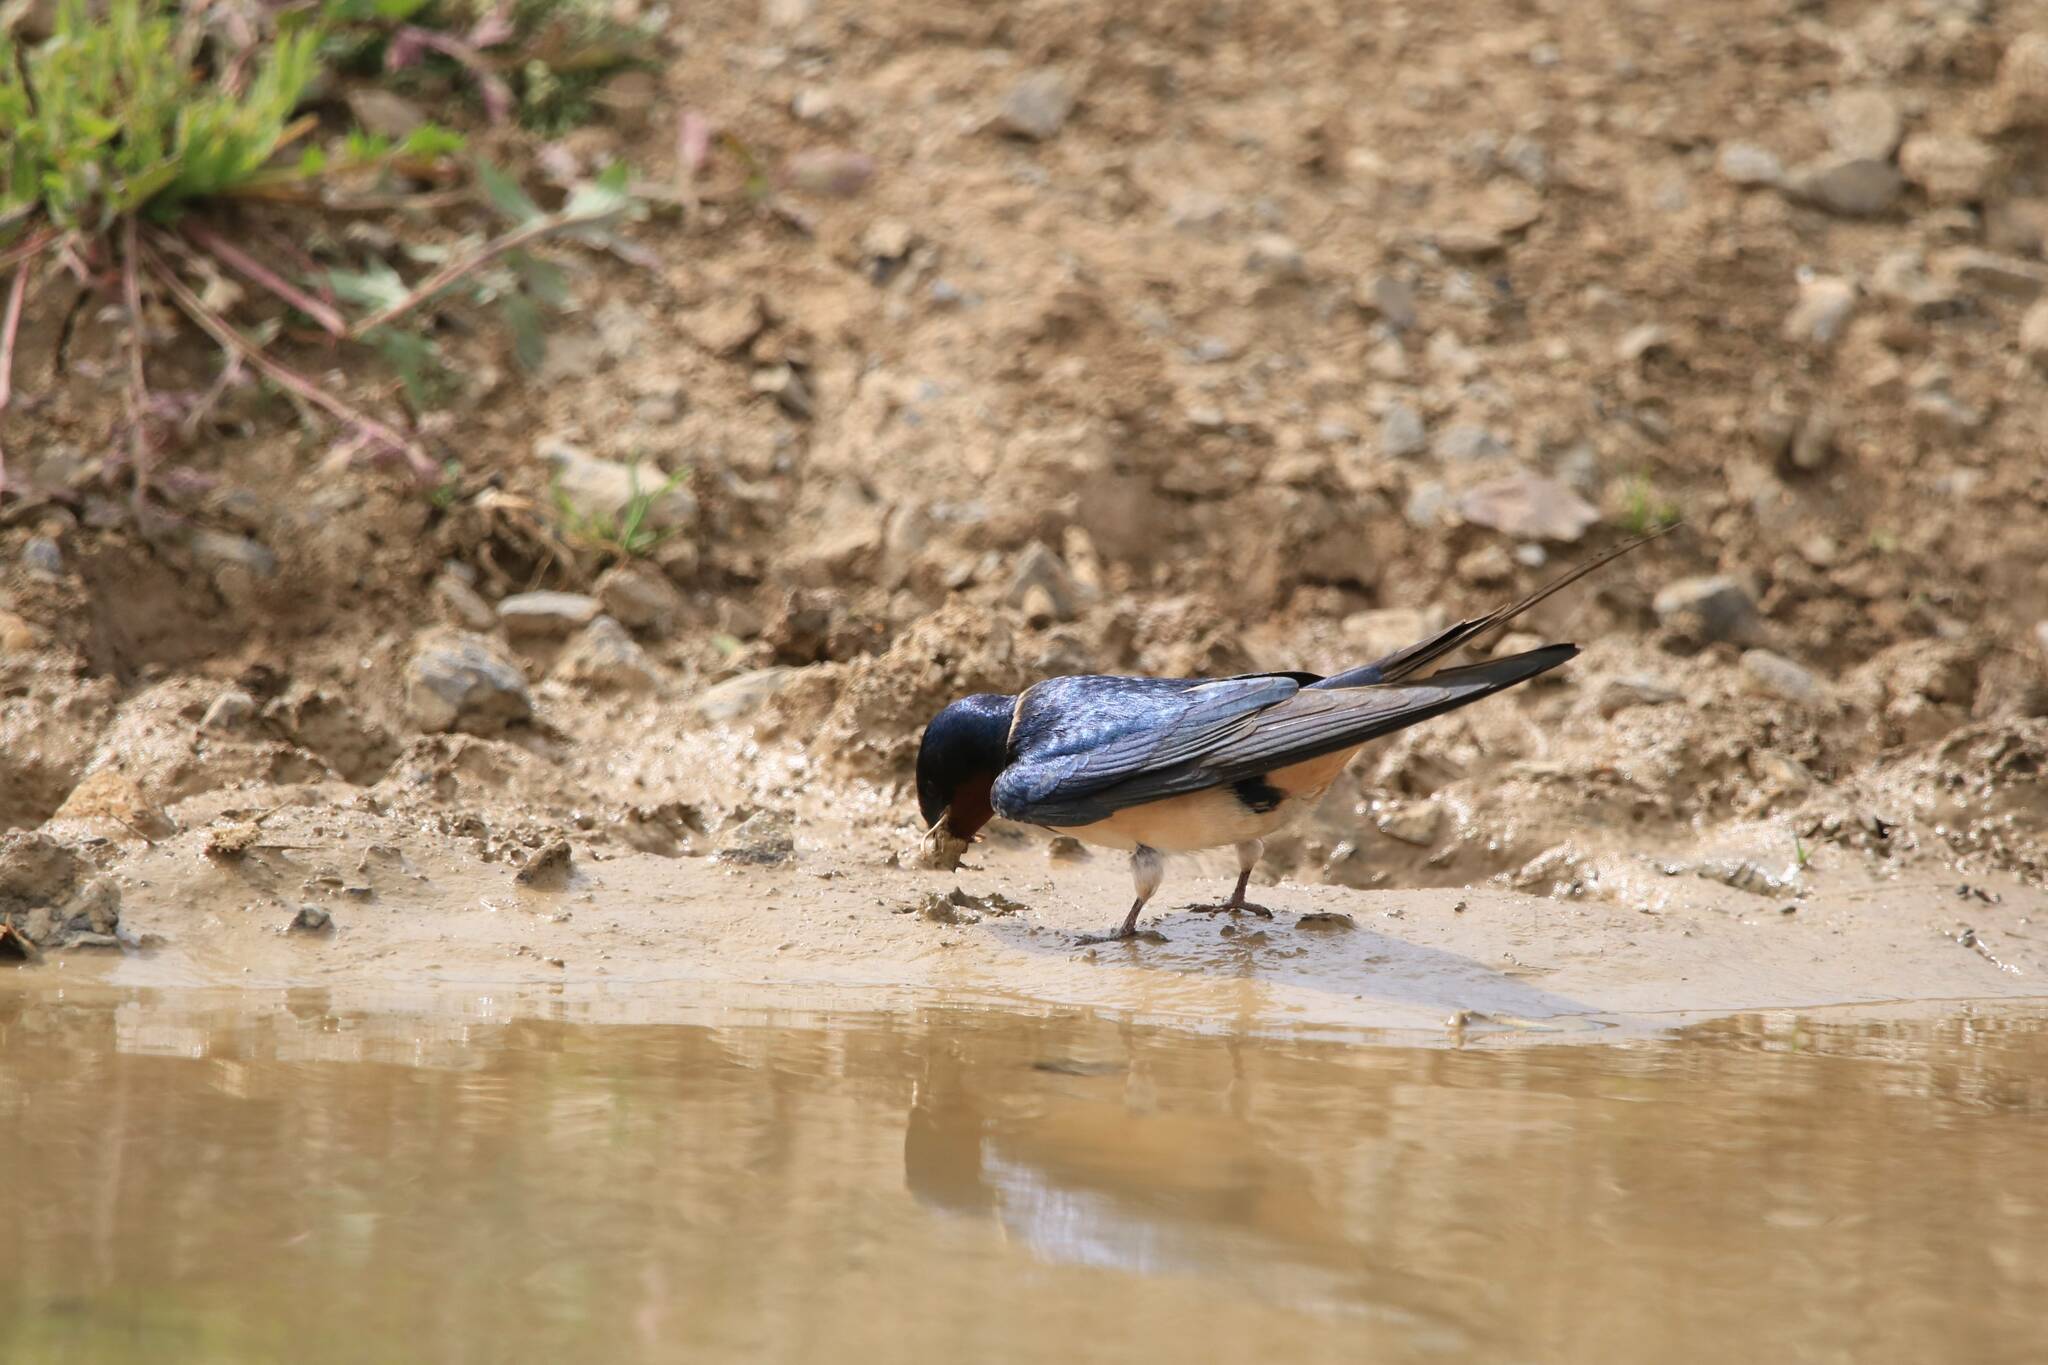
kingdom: Animalia
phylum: Chordata
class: Aves
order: Passeriformes
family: Hirundinidae
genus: Hirundo
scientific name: Hirundo rustica
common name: Barn swallow
